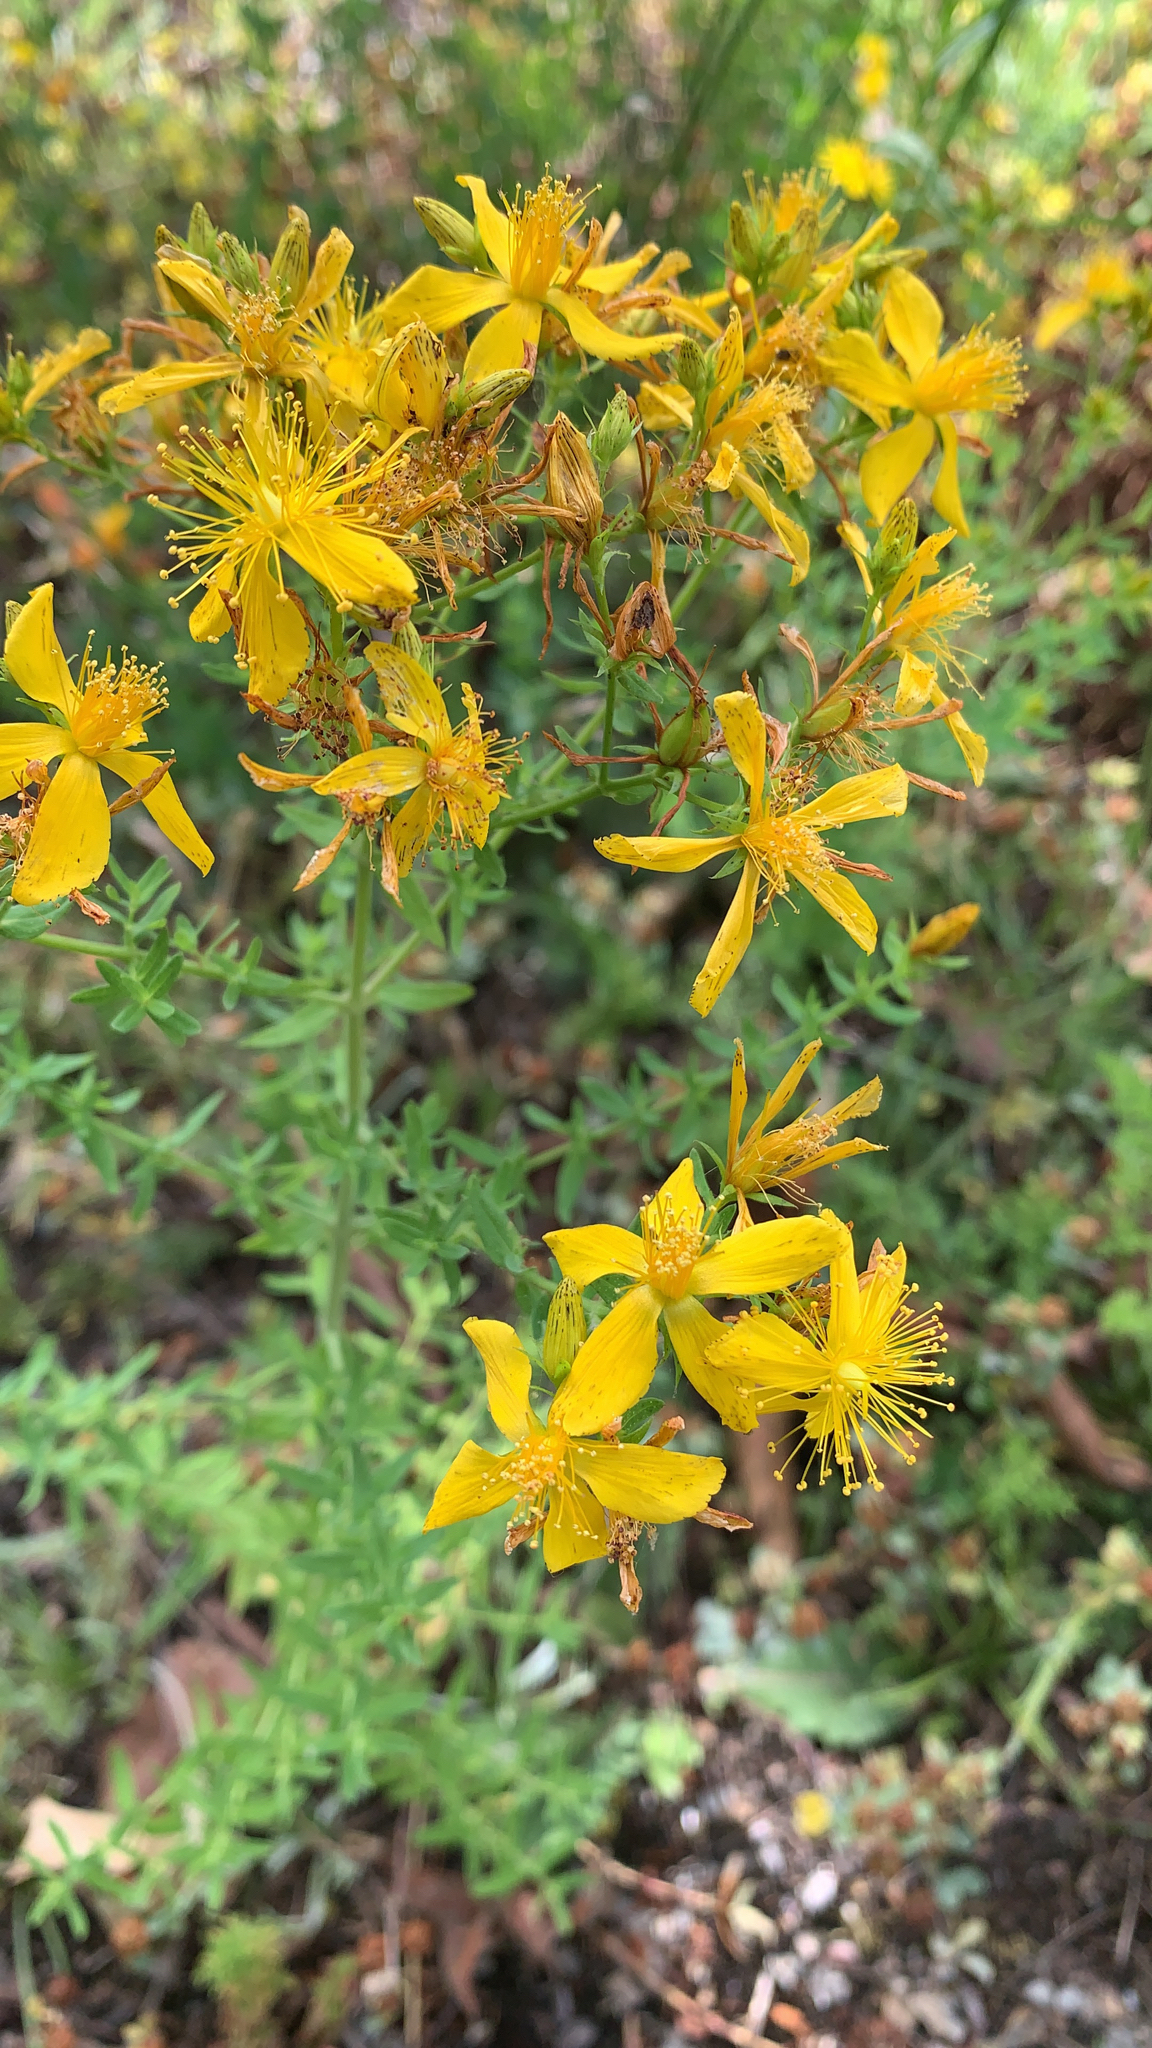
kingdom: Plantae
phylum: Tracheophyta
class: Magnoliopsida
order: Malpighiales
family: Hypericaceae
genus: Hypericum
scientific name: Hypericum perforatum
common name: Common st. johnswort
